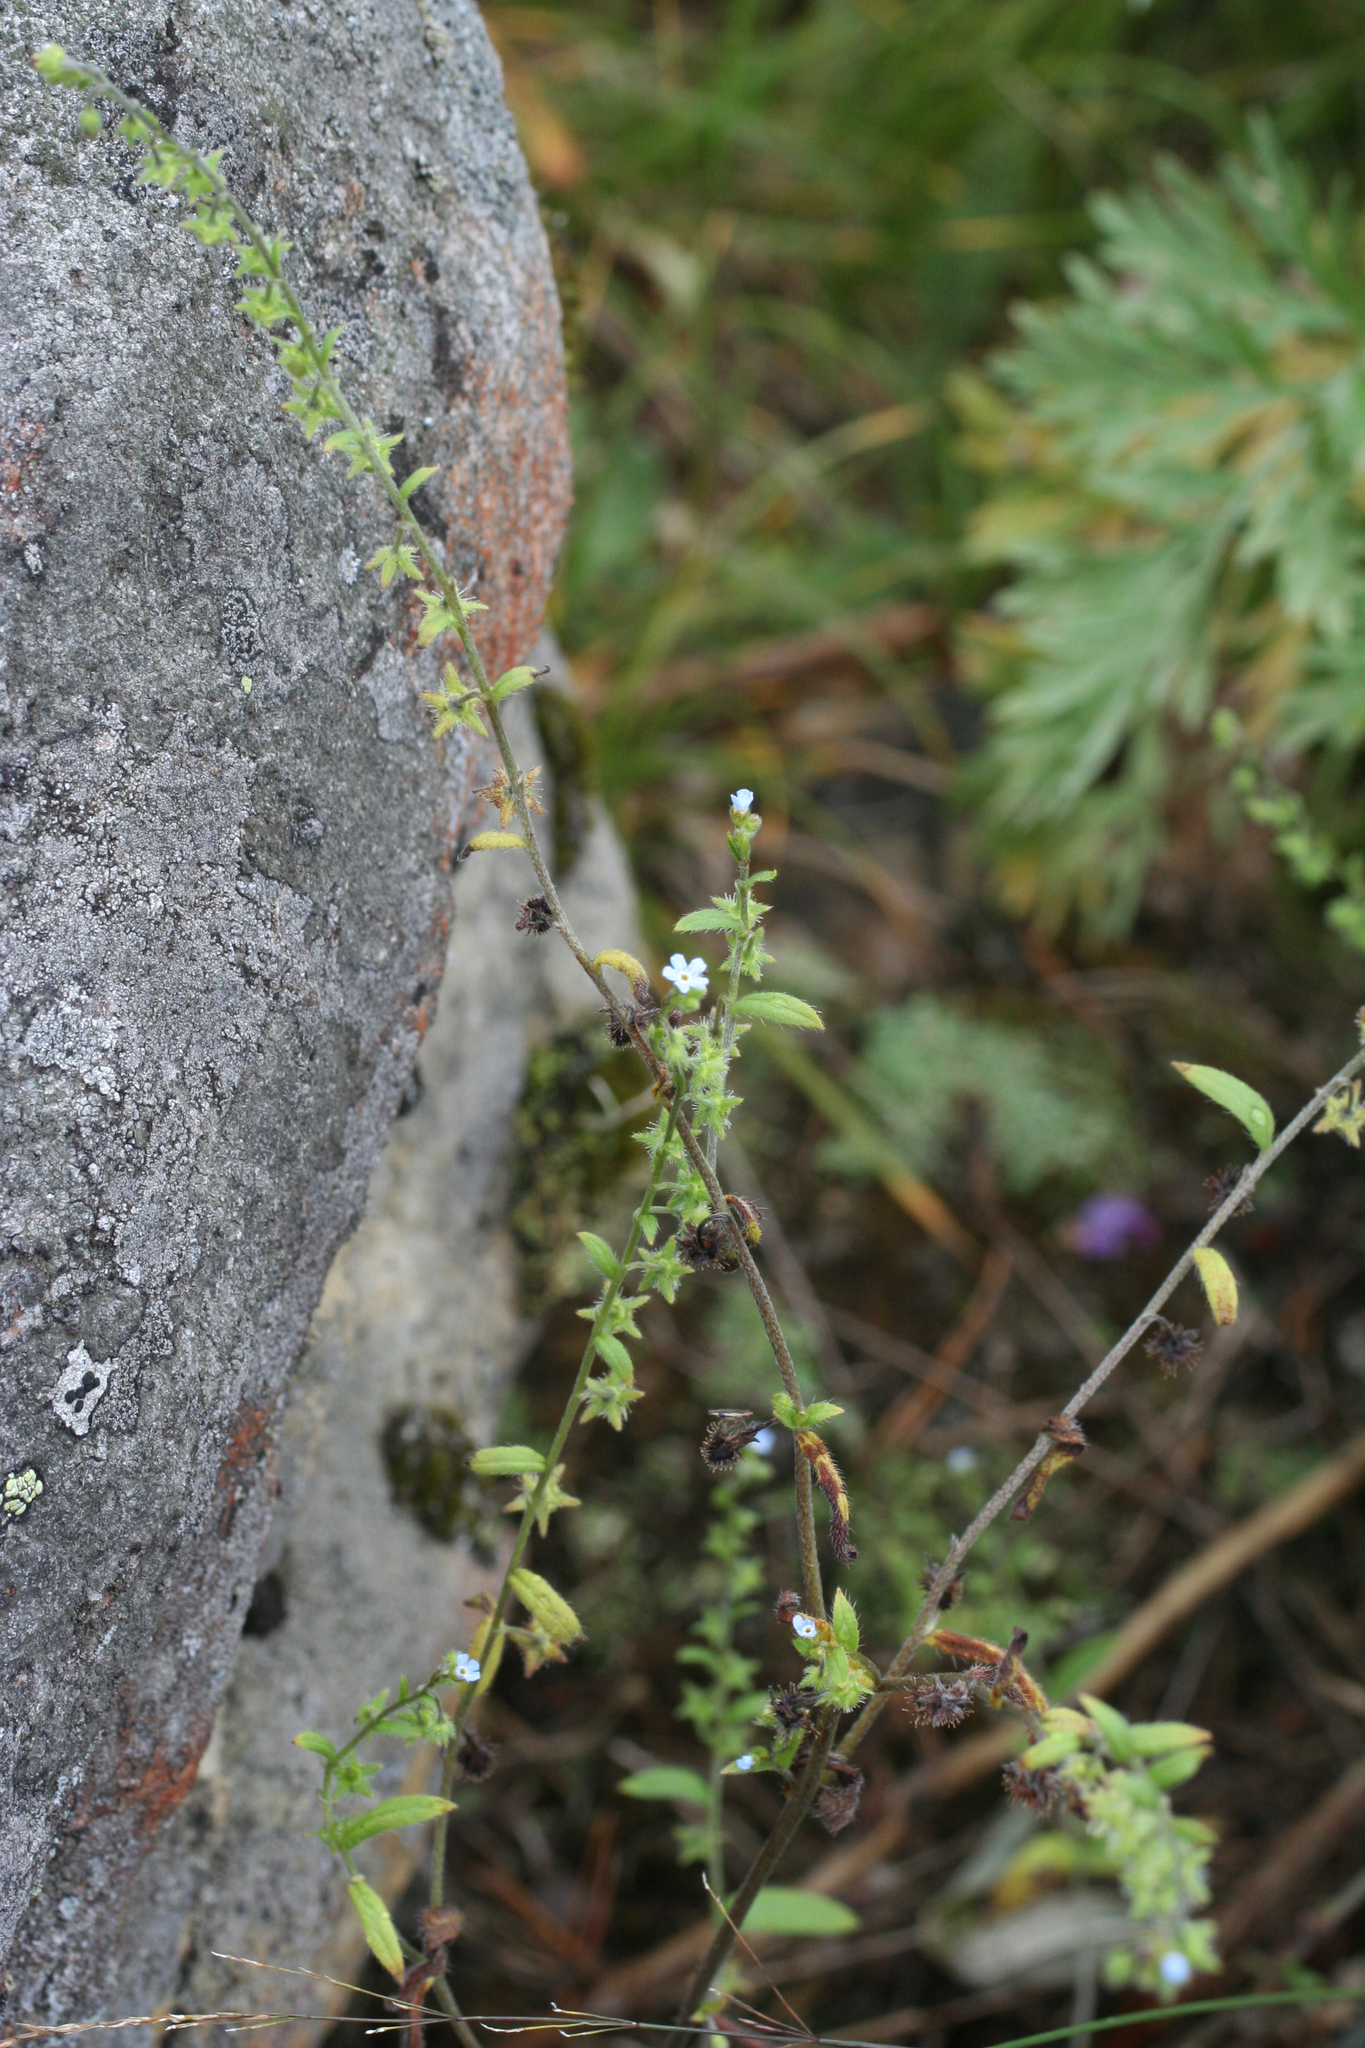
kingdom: Plantae
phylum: Tracheophyta
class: Magnoliopsida
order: Boraginales
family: Boraginaceae
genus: Hackelia
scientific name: Hackelia deflexa
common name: Nodding stickseed
